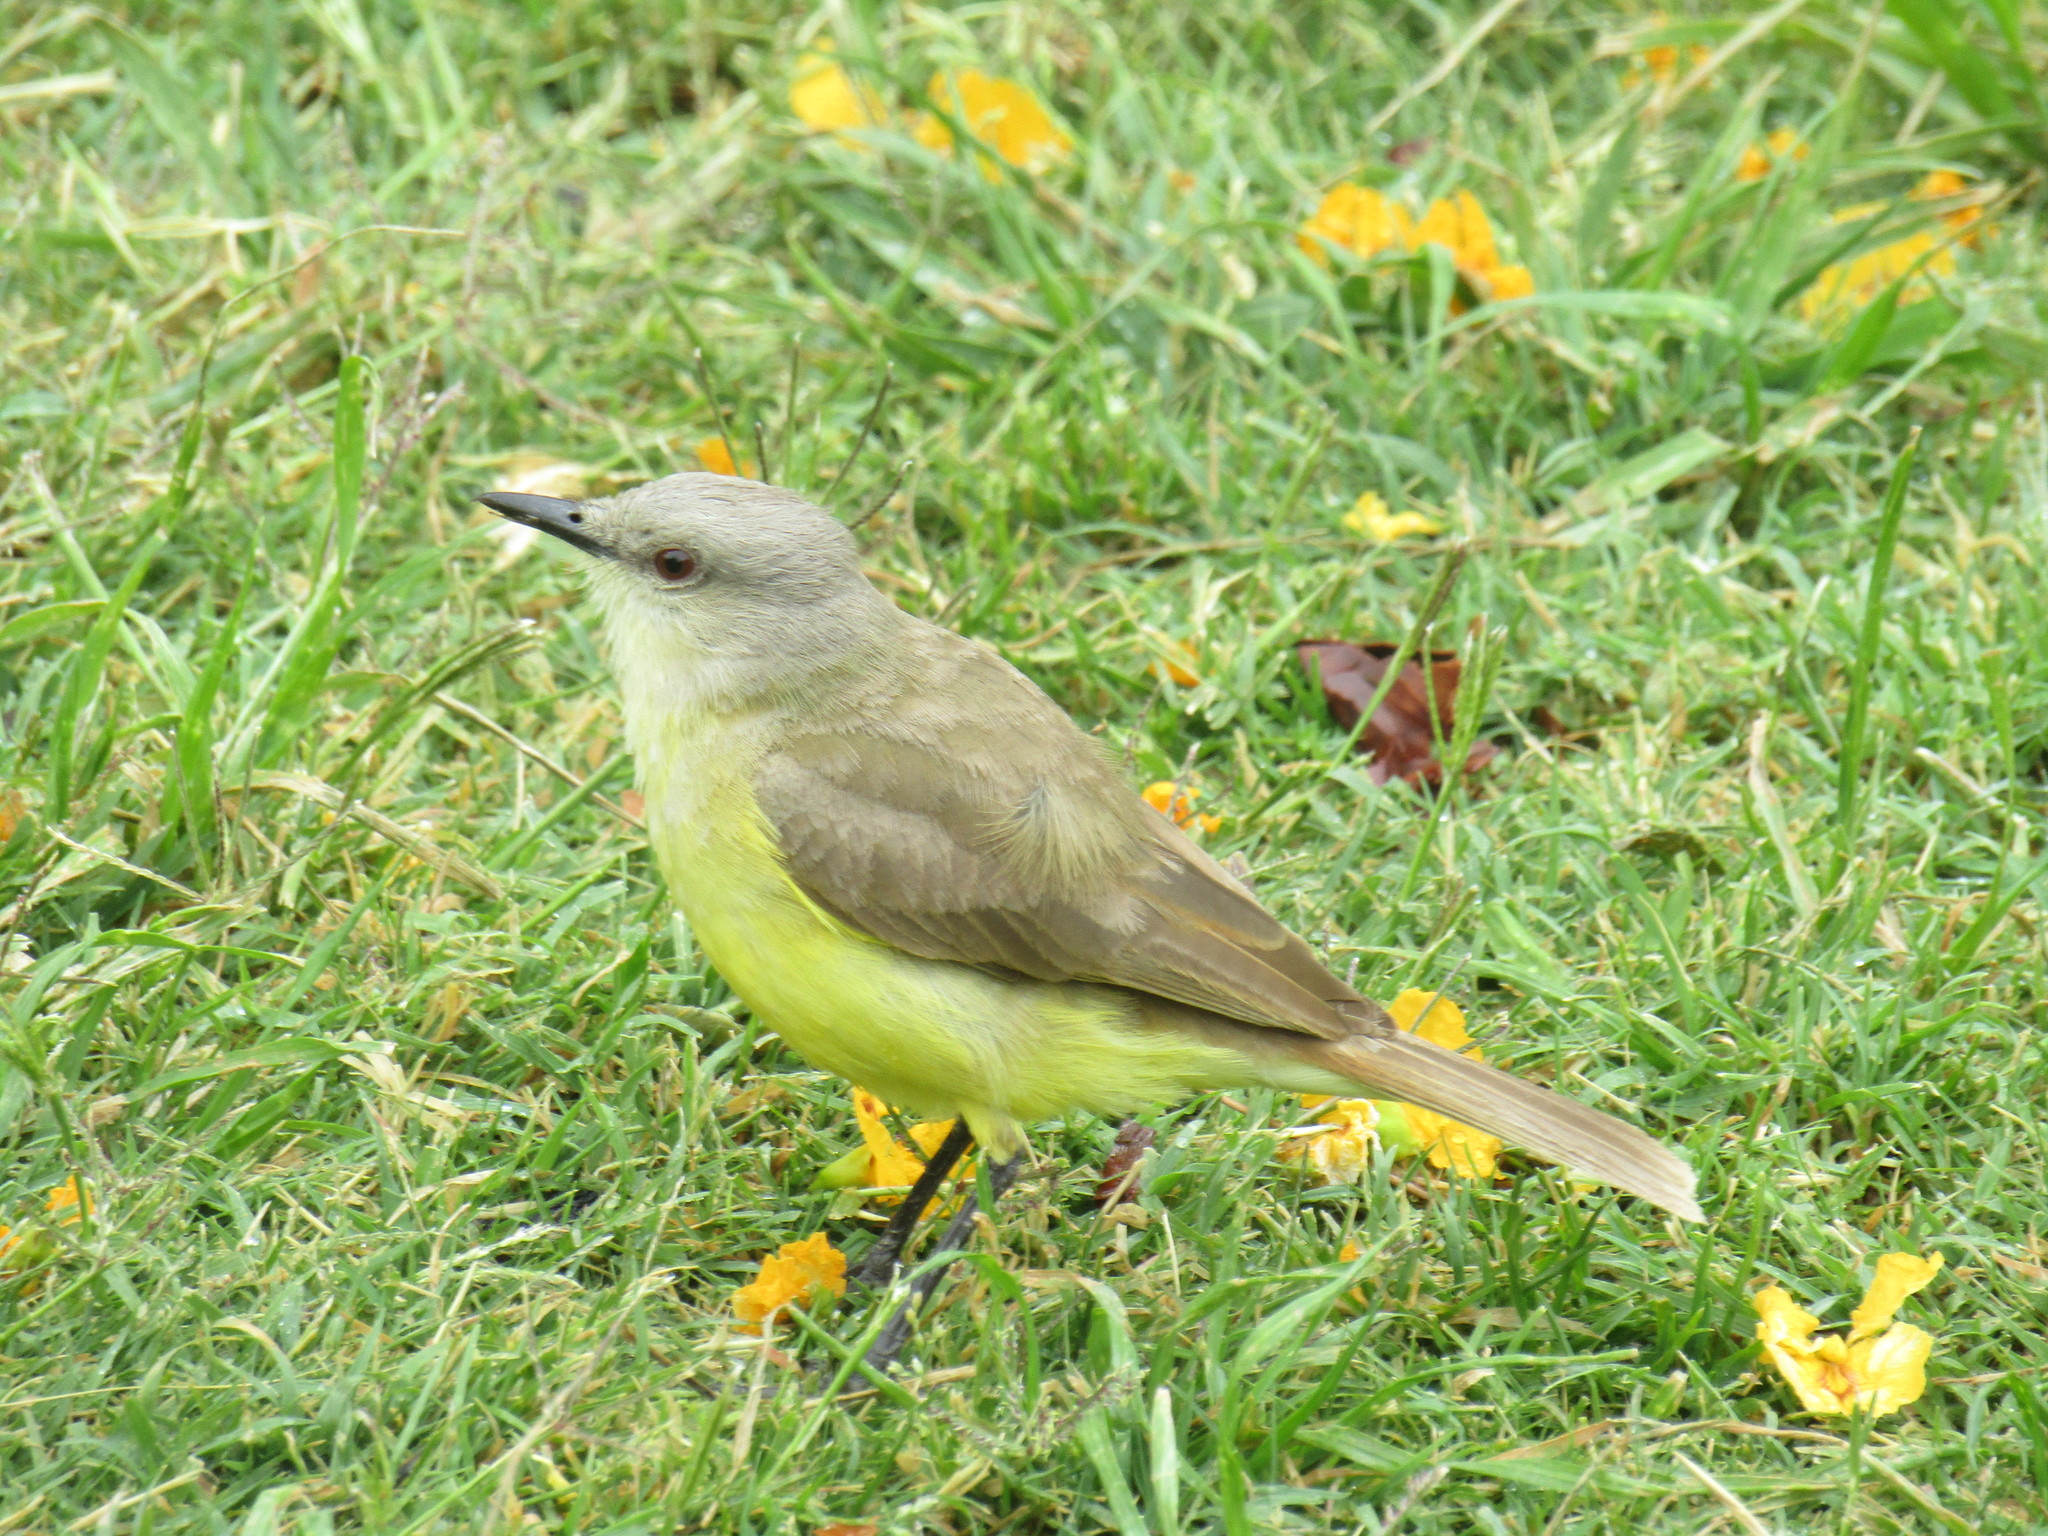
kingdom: Animalia
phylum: Chordata
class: Aves
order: Passeriformes
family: Tyrannidae
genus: Machetornis
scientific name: Machetornis rixosa
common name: Cattle tyrant
